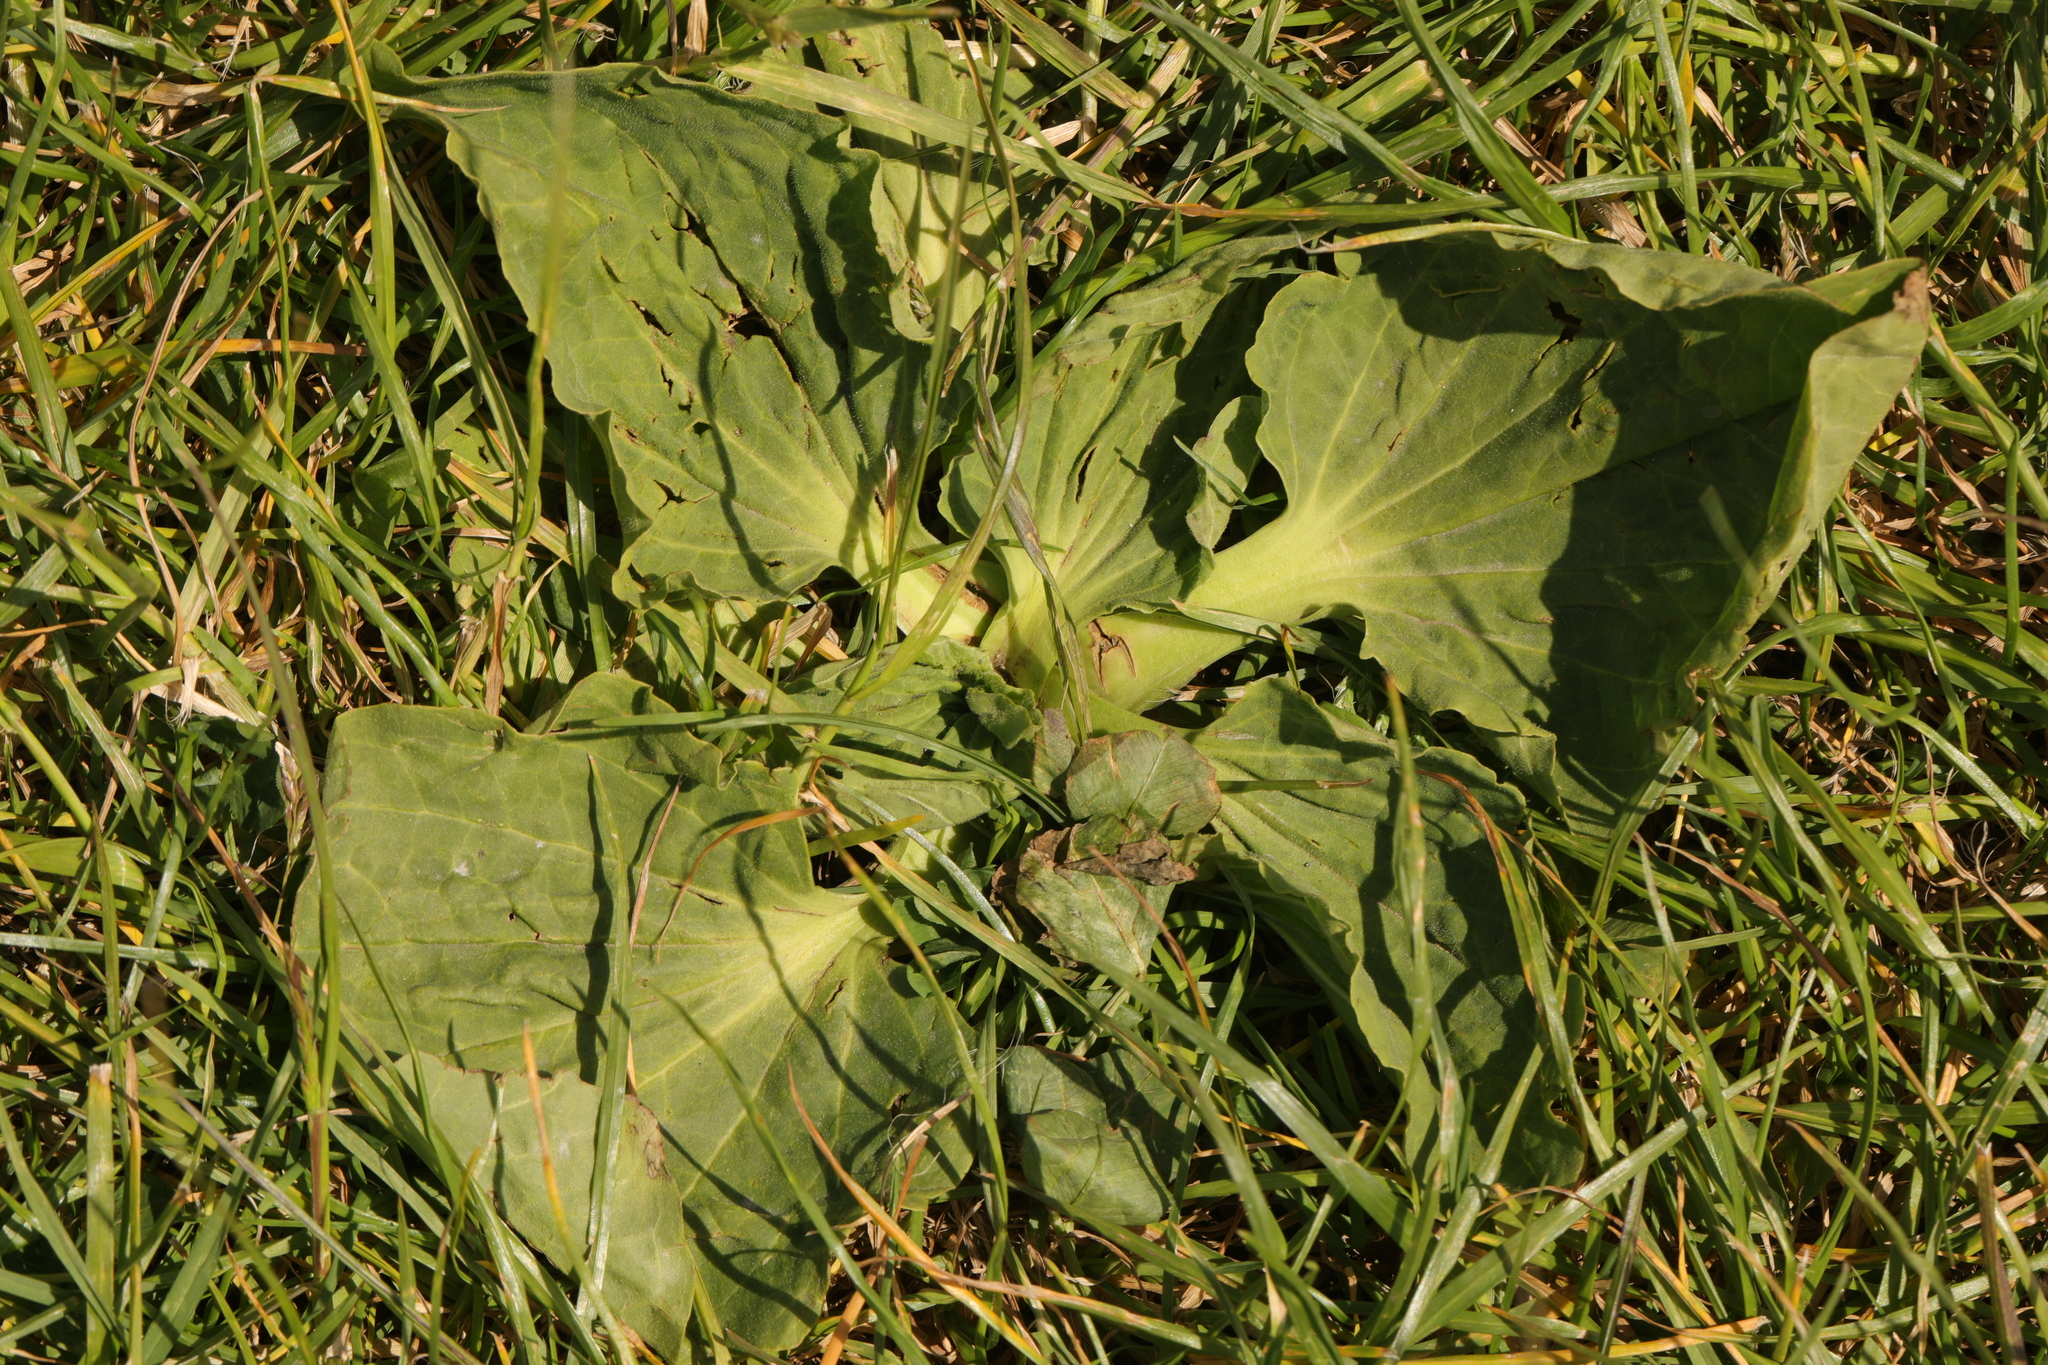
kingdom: Plantae
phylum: Tracheophyta
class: Magnoliopsida
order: Lamiales
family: Plantaginaceae
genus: Plantago
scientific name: Plantago major
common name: Common plantain
